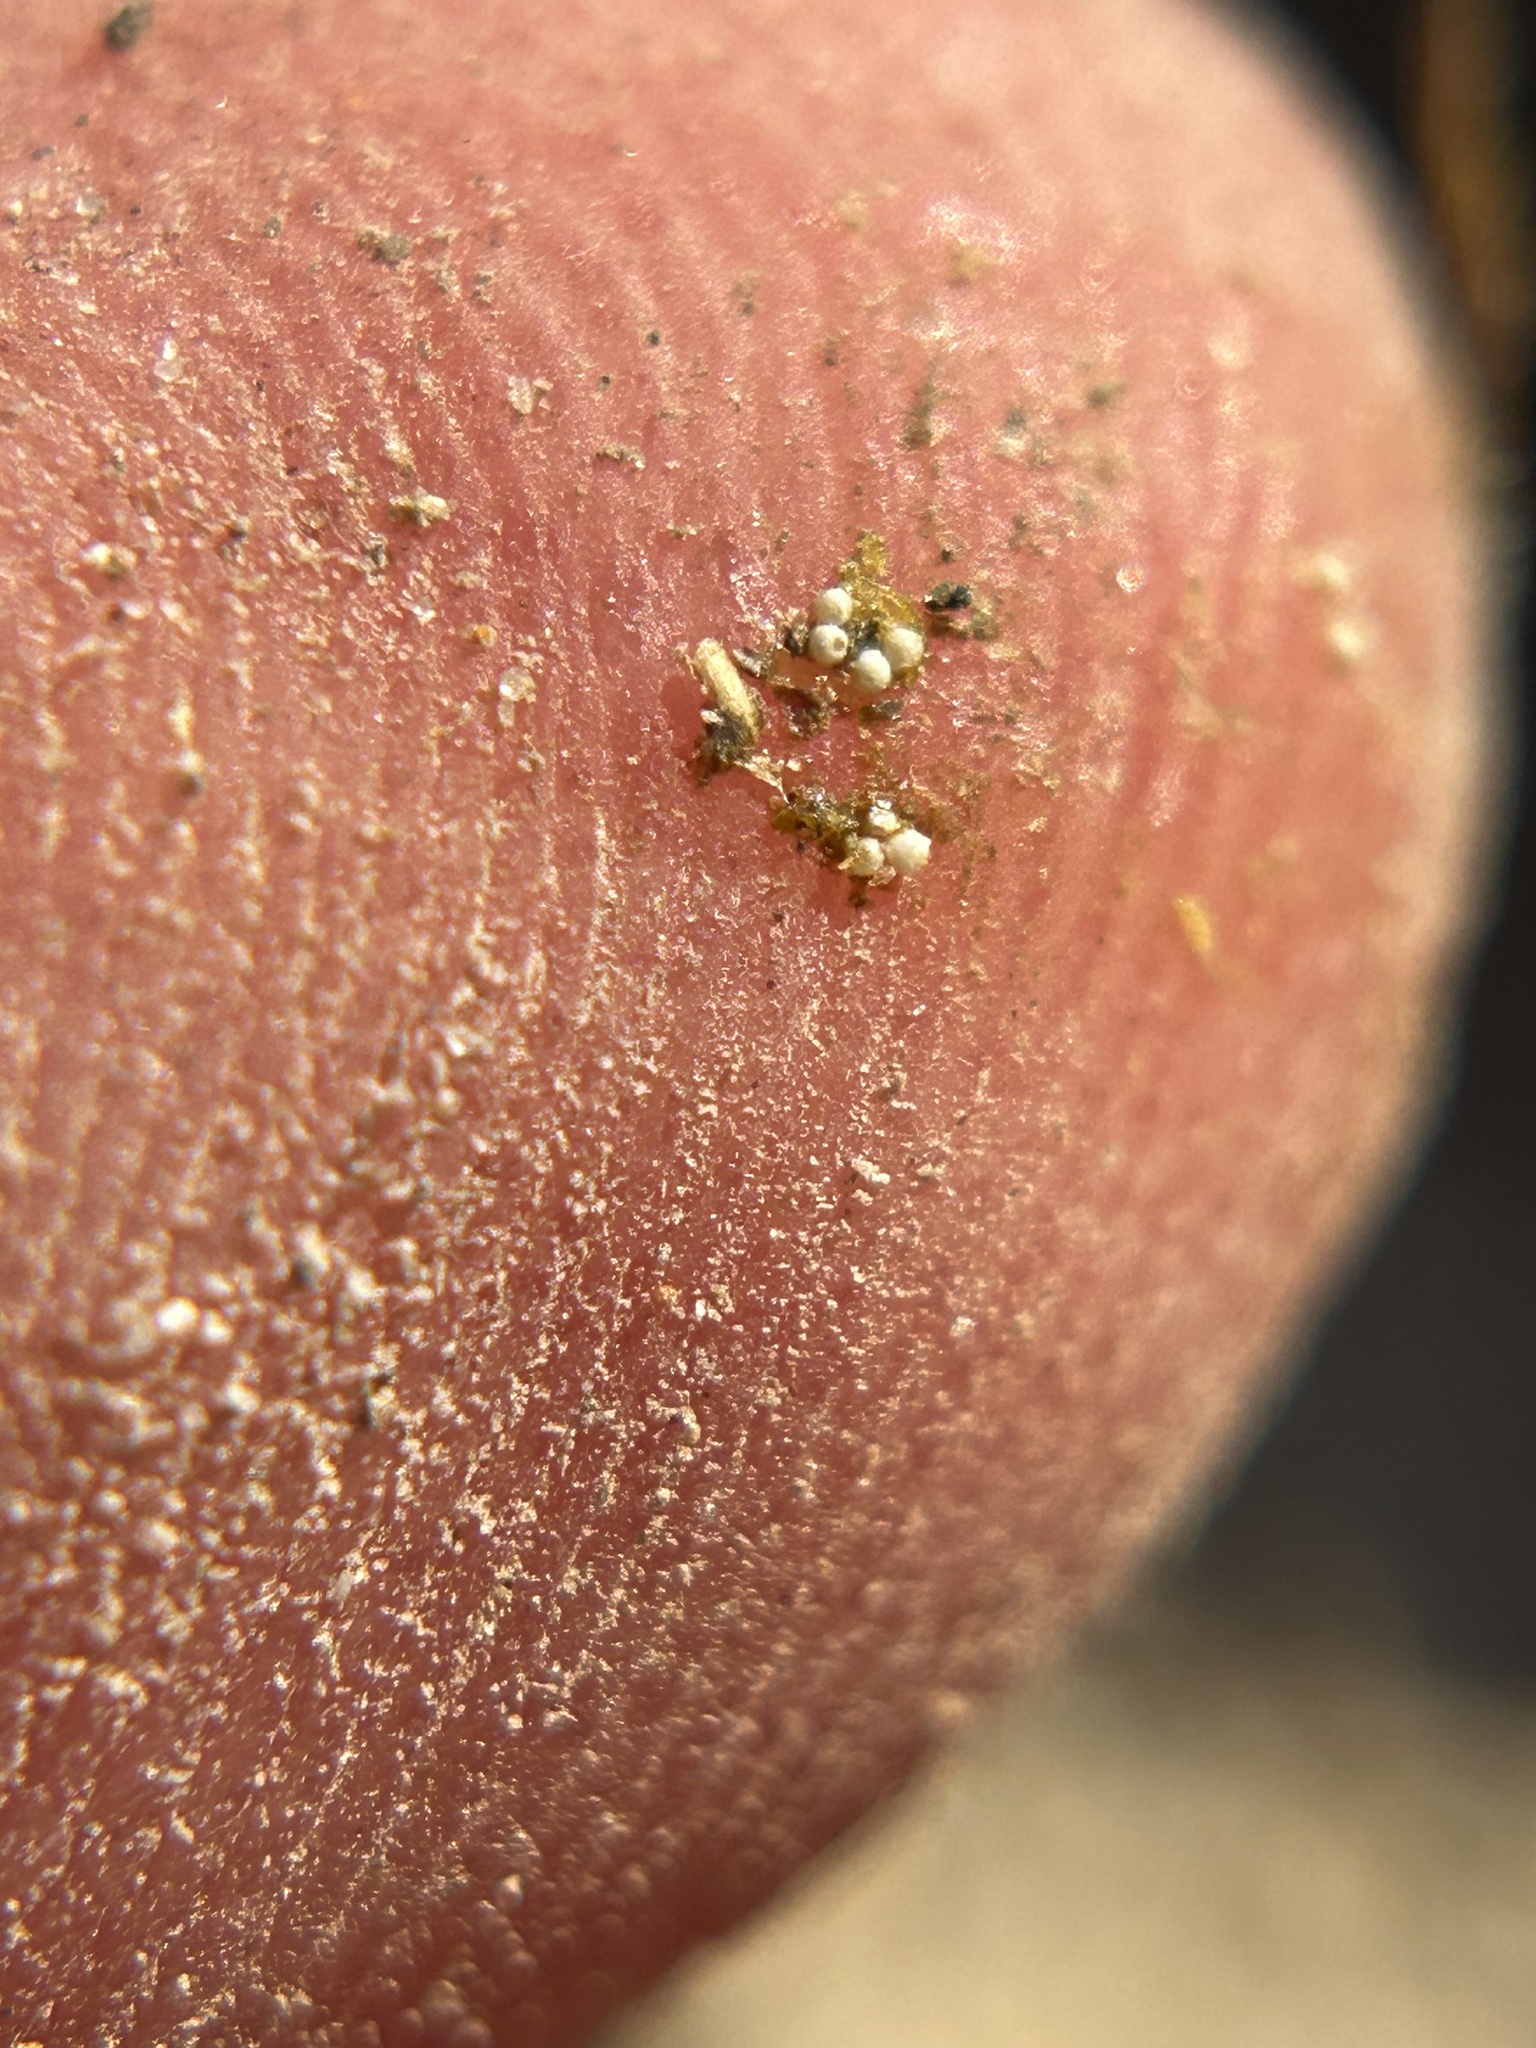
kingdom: Plantae
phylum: Tracheophyta
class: Polypodiopsida
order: Salviniales
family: Marsileaceae
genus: Pilularia
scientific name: Pilularia americana
